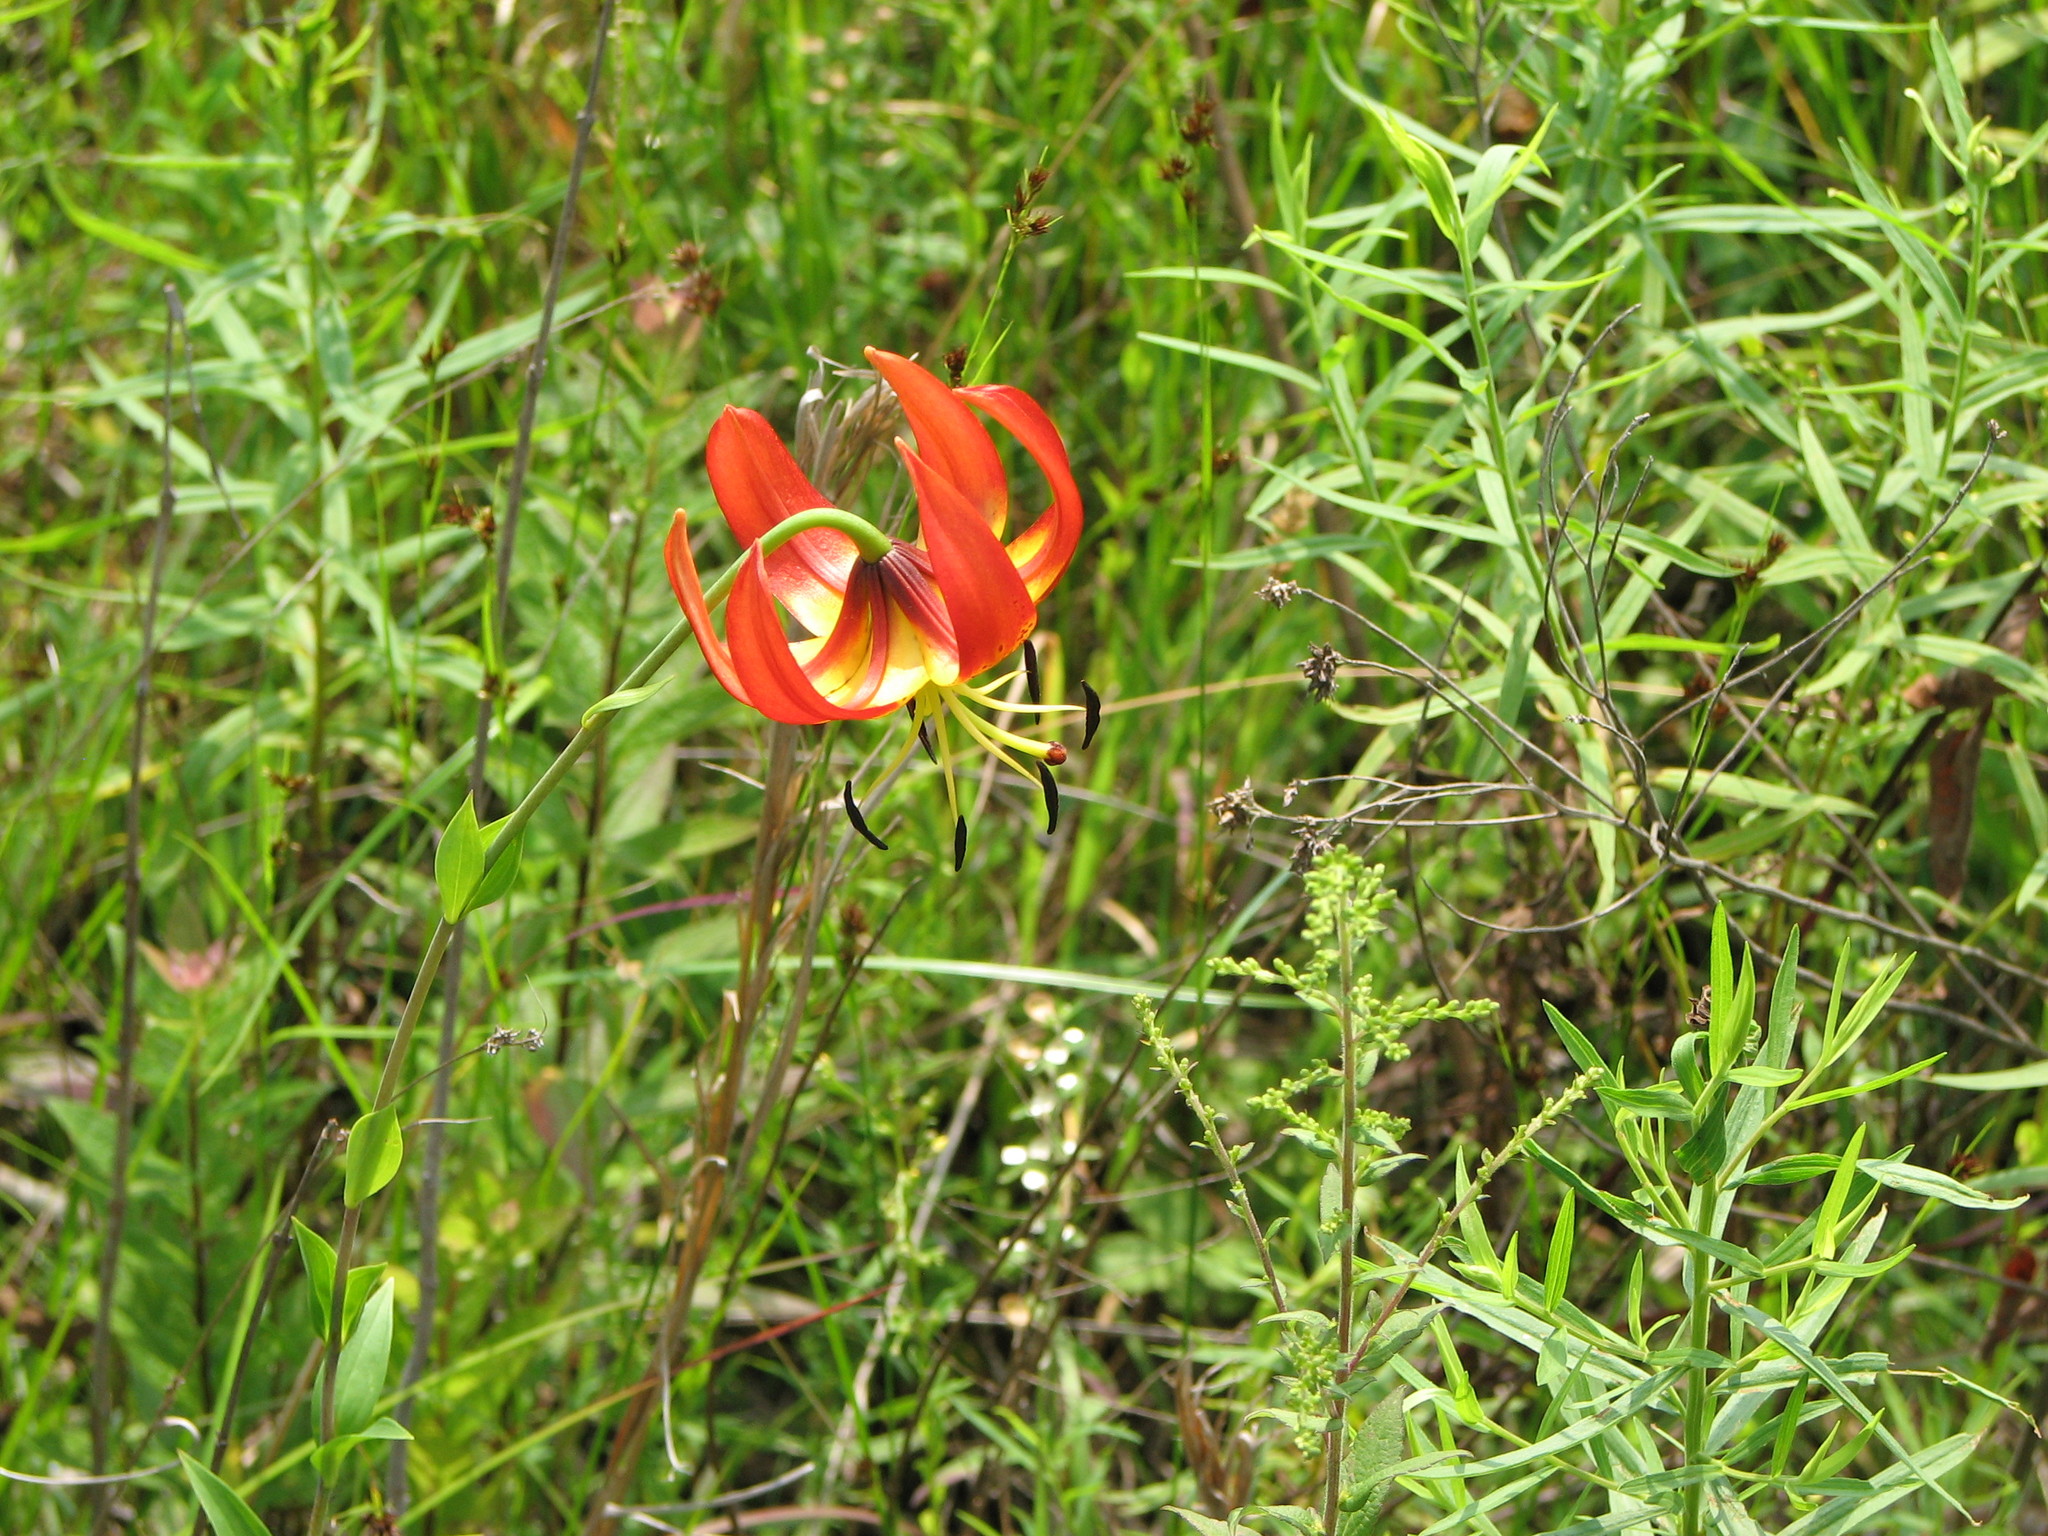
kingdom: Plantae
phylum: Tracheophyta
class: Liliopsida
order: Liliales
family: Liliaceae
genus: Lilium
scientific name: Lilium superbum
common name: American turk's-cap lily
